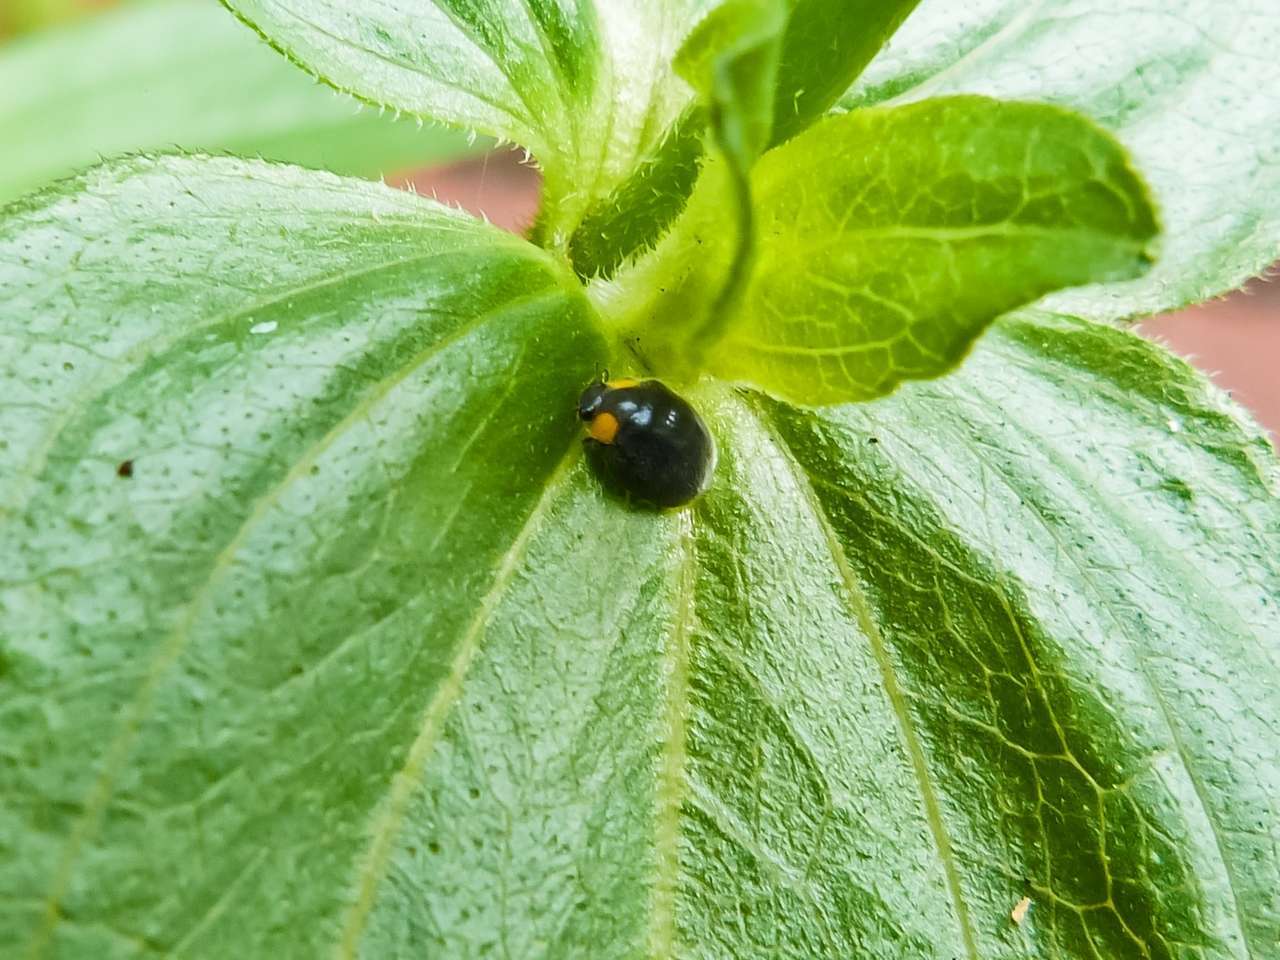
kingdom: Animalia
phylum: Arthropoda
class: Insecta
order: Coleoptera
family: Coccinellidae
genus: Scymnodes
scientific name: Scymnodes lividigaster
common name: Yellowshouldered lady beetle
